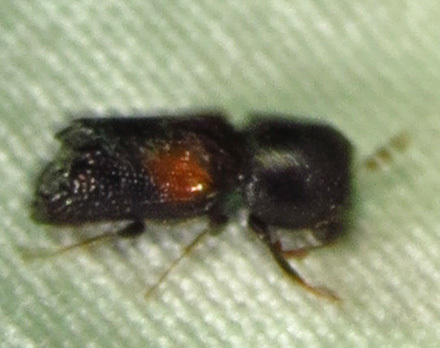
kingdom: Animalia
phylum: Arthropoda
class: Insecta
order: Coleoptera
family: Bostrichidae
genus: Xylobiops
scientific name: Xylobiops basilaris
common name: Red-shouldered bostrichid
